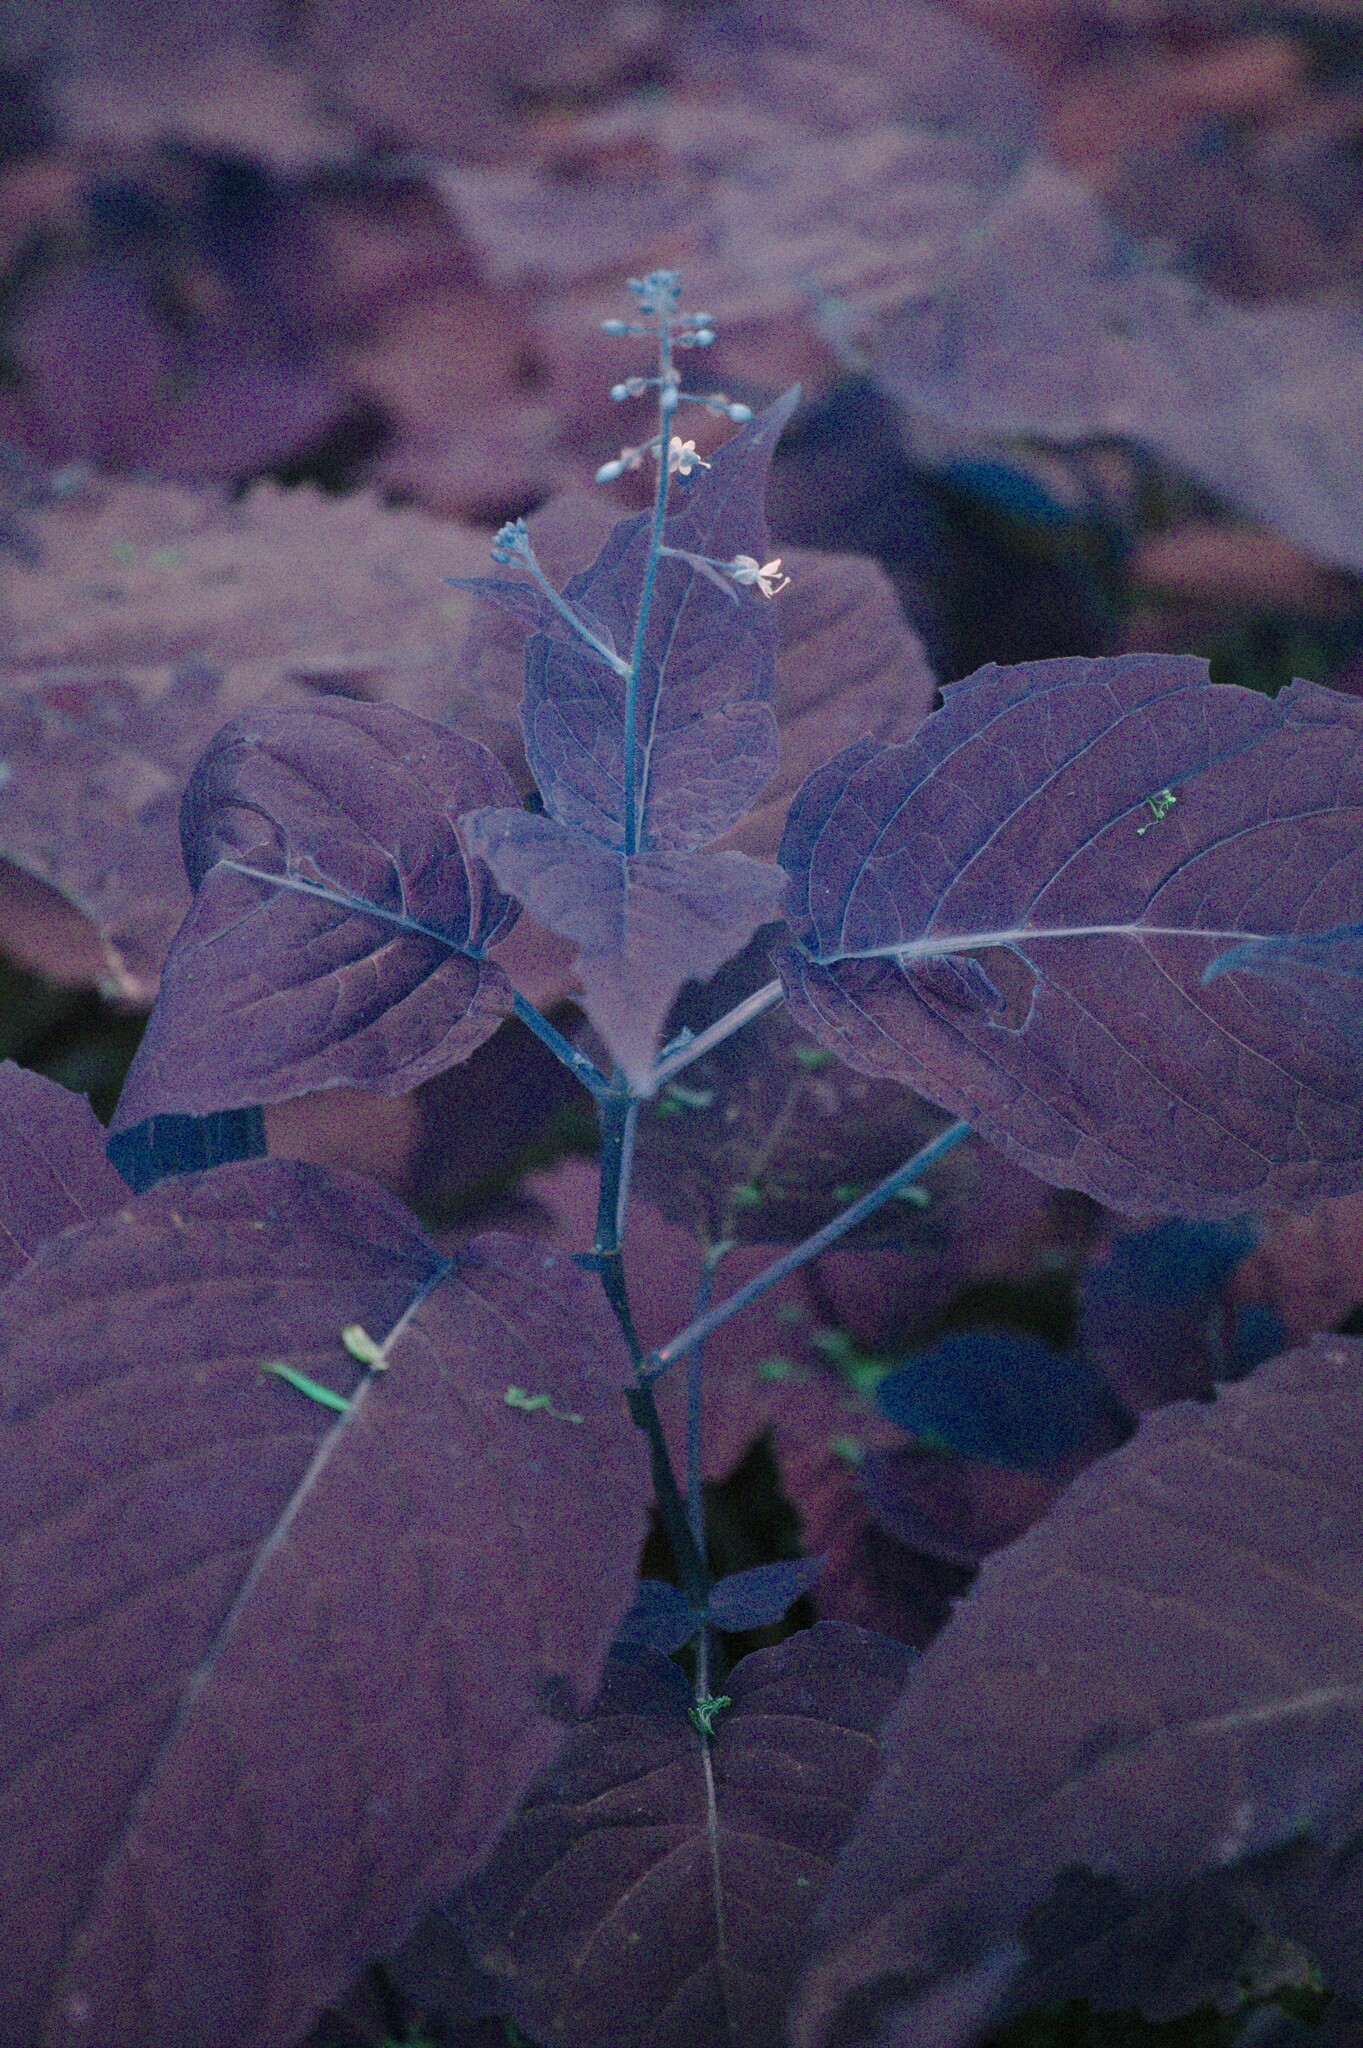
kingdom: Plantae
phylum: Tracheophyta
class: Magnoliopsida
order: Myrtales
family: Onagraceae
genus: Circaea
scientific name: Circaea canadensis
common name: Broad-leaved enchanter's nightshade
